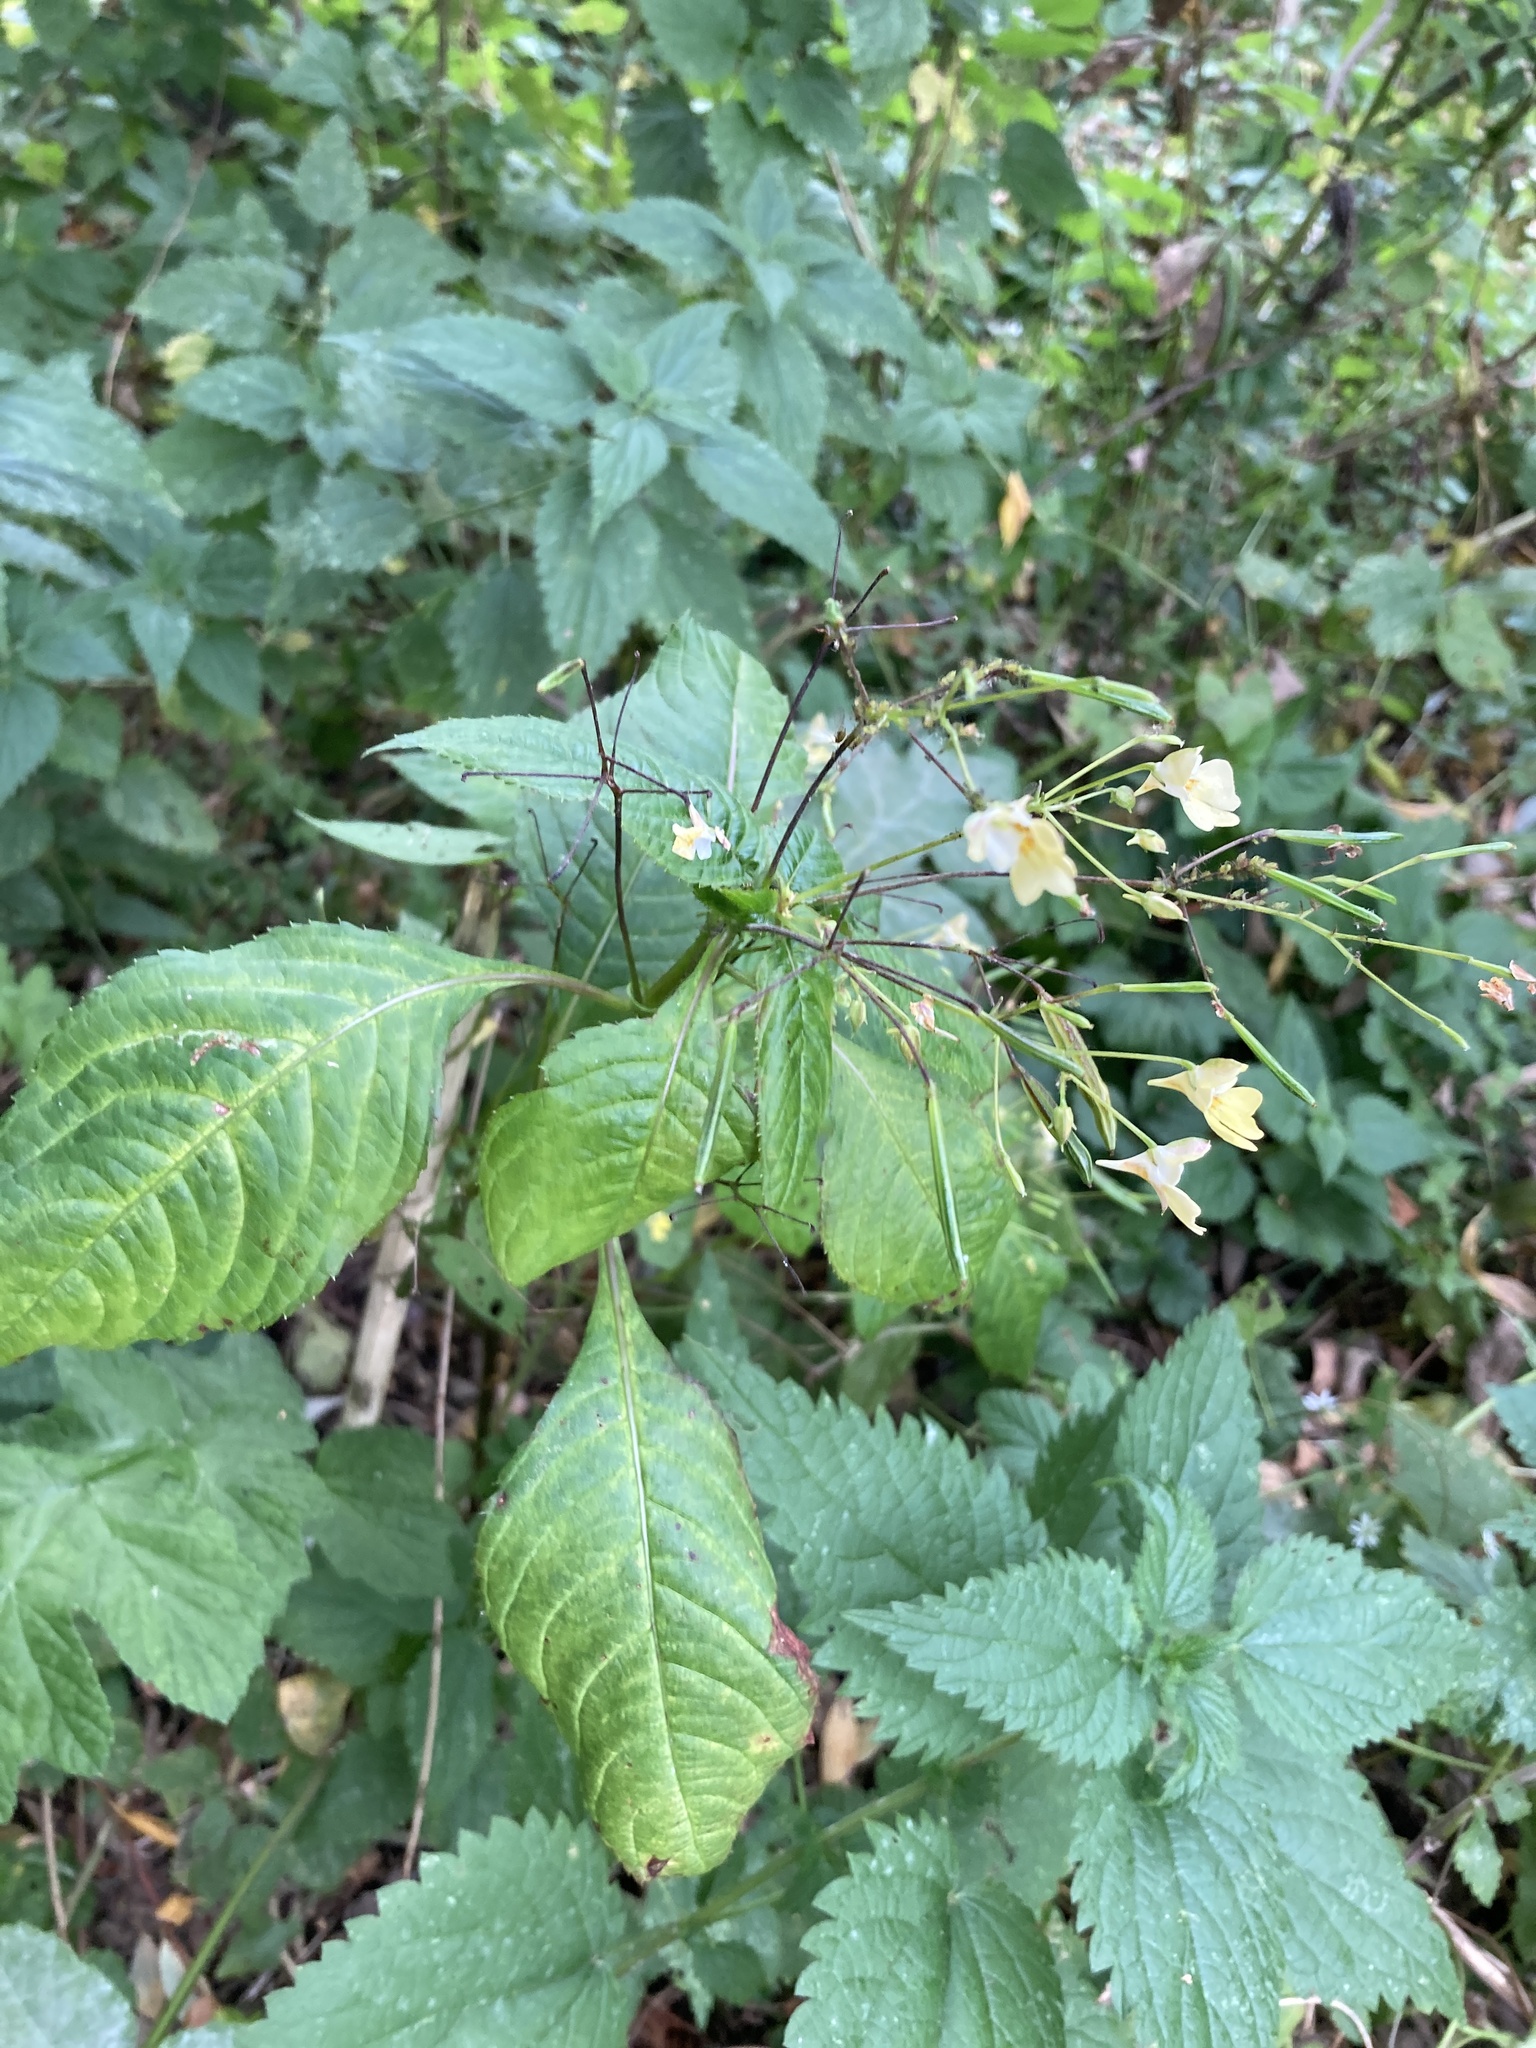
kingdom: Plantae
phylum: Tracheophyta
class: Magnoliopsida
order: Ericales
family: Balsaminaceae
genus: Impatiens
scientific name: Impatiens parviflora
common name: Small balsam
